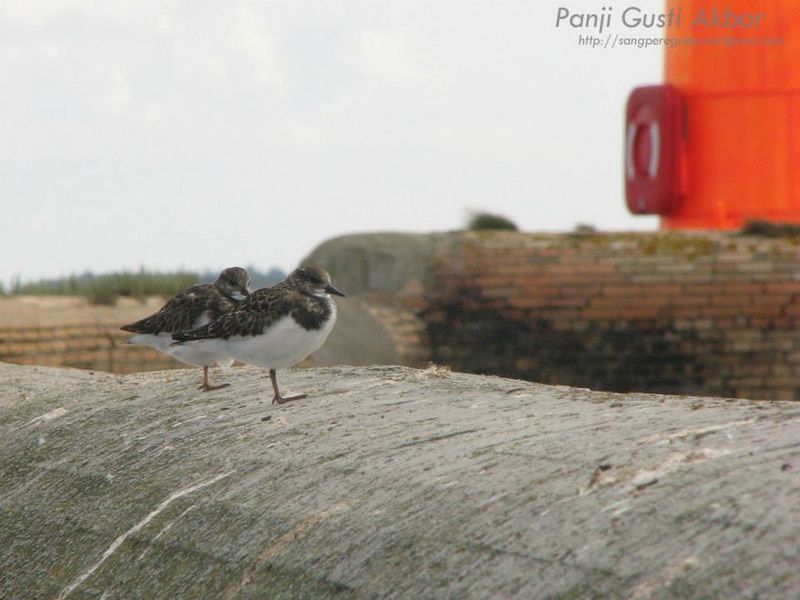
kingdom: Animalia
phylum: Chordata
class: Aves
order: Charadriiformes
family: Scolopacidae
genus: Arenaria
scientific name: Arenaria interpres
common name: Ruddy turnstone
